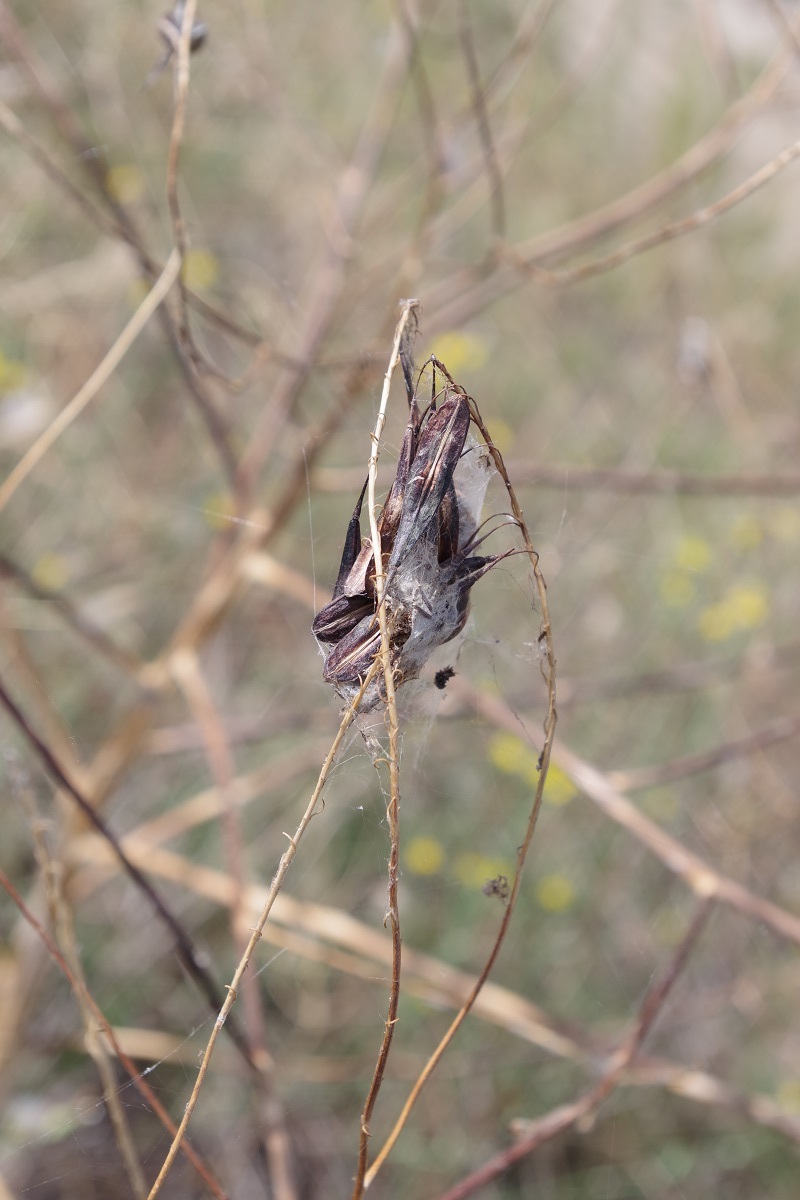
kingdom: Plantae
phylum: Tracheophyta
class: Magnoliopsida
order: Brassicales
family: Brassicaceae
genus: Isatis
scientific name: Isatis tinctoria
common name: Woad
